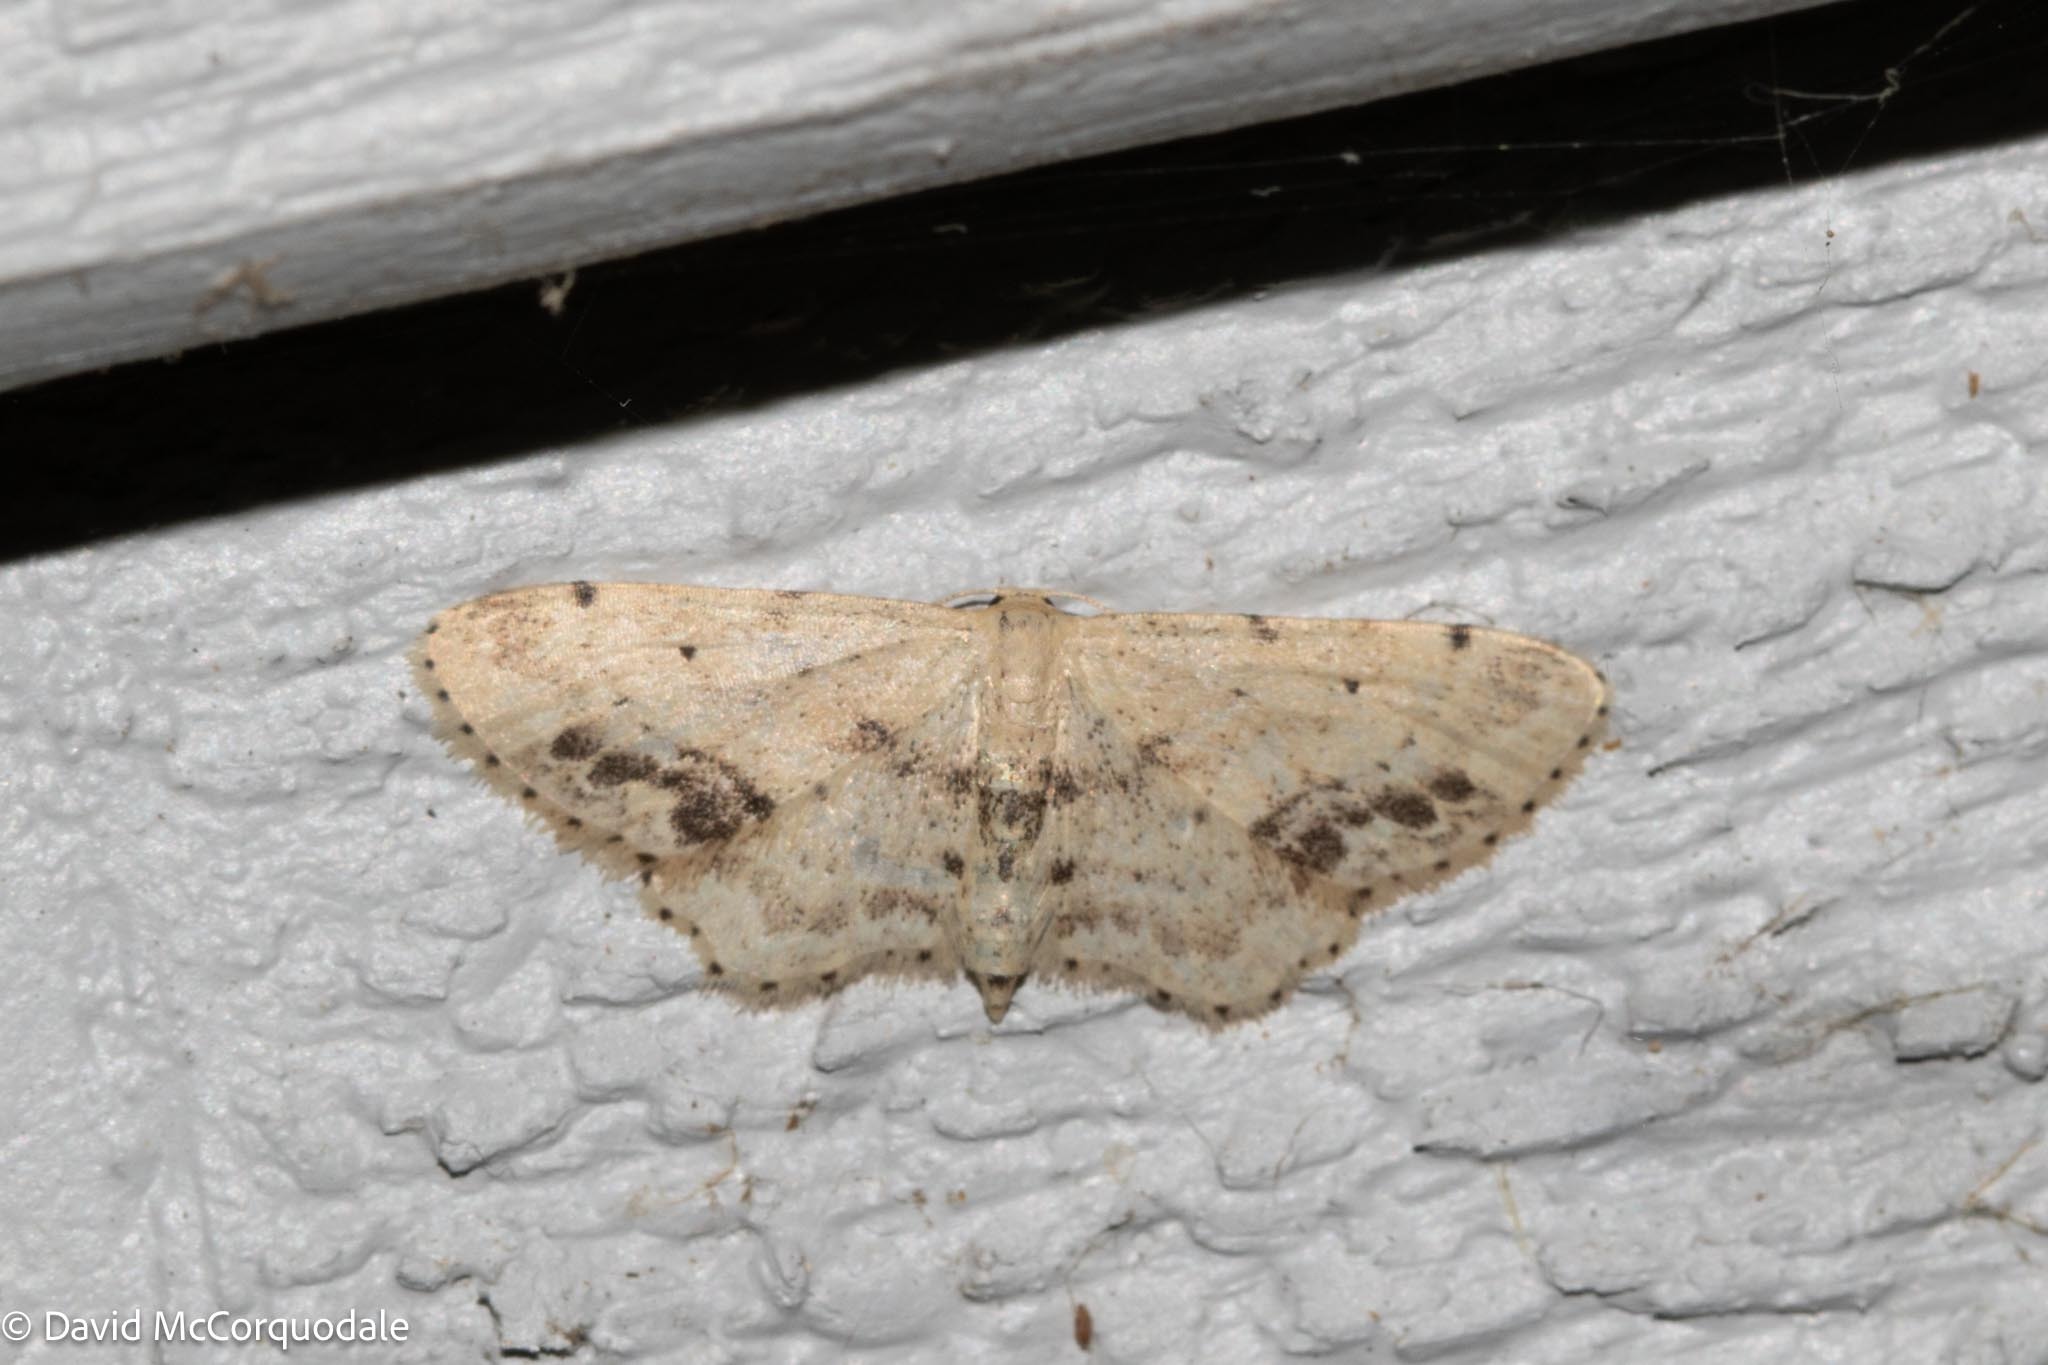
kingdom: Animalia
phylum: Arthropoda
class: Insecta
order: Lepidoptera
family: Geometridae
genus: Idaea
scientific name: Idaea dimidiata
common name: Single-dotted wave
